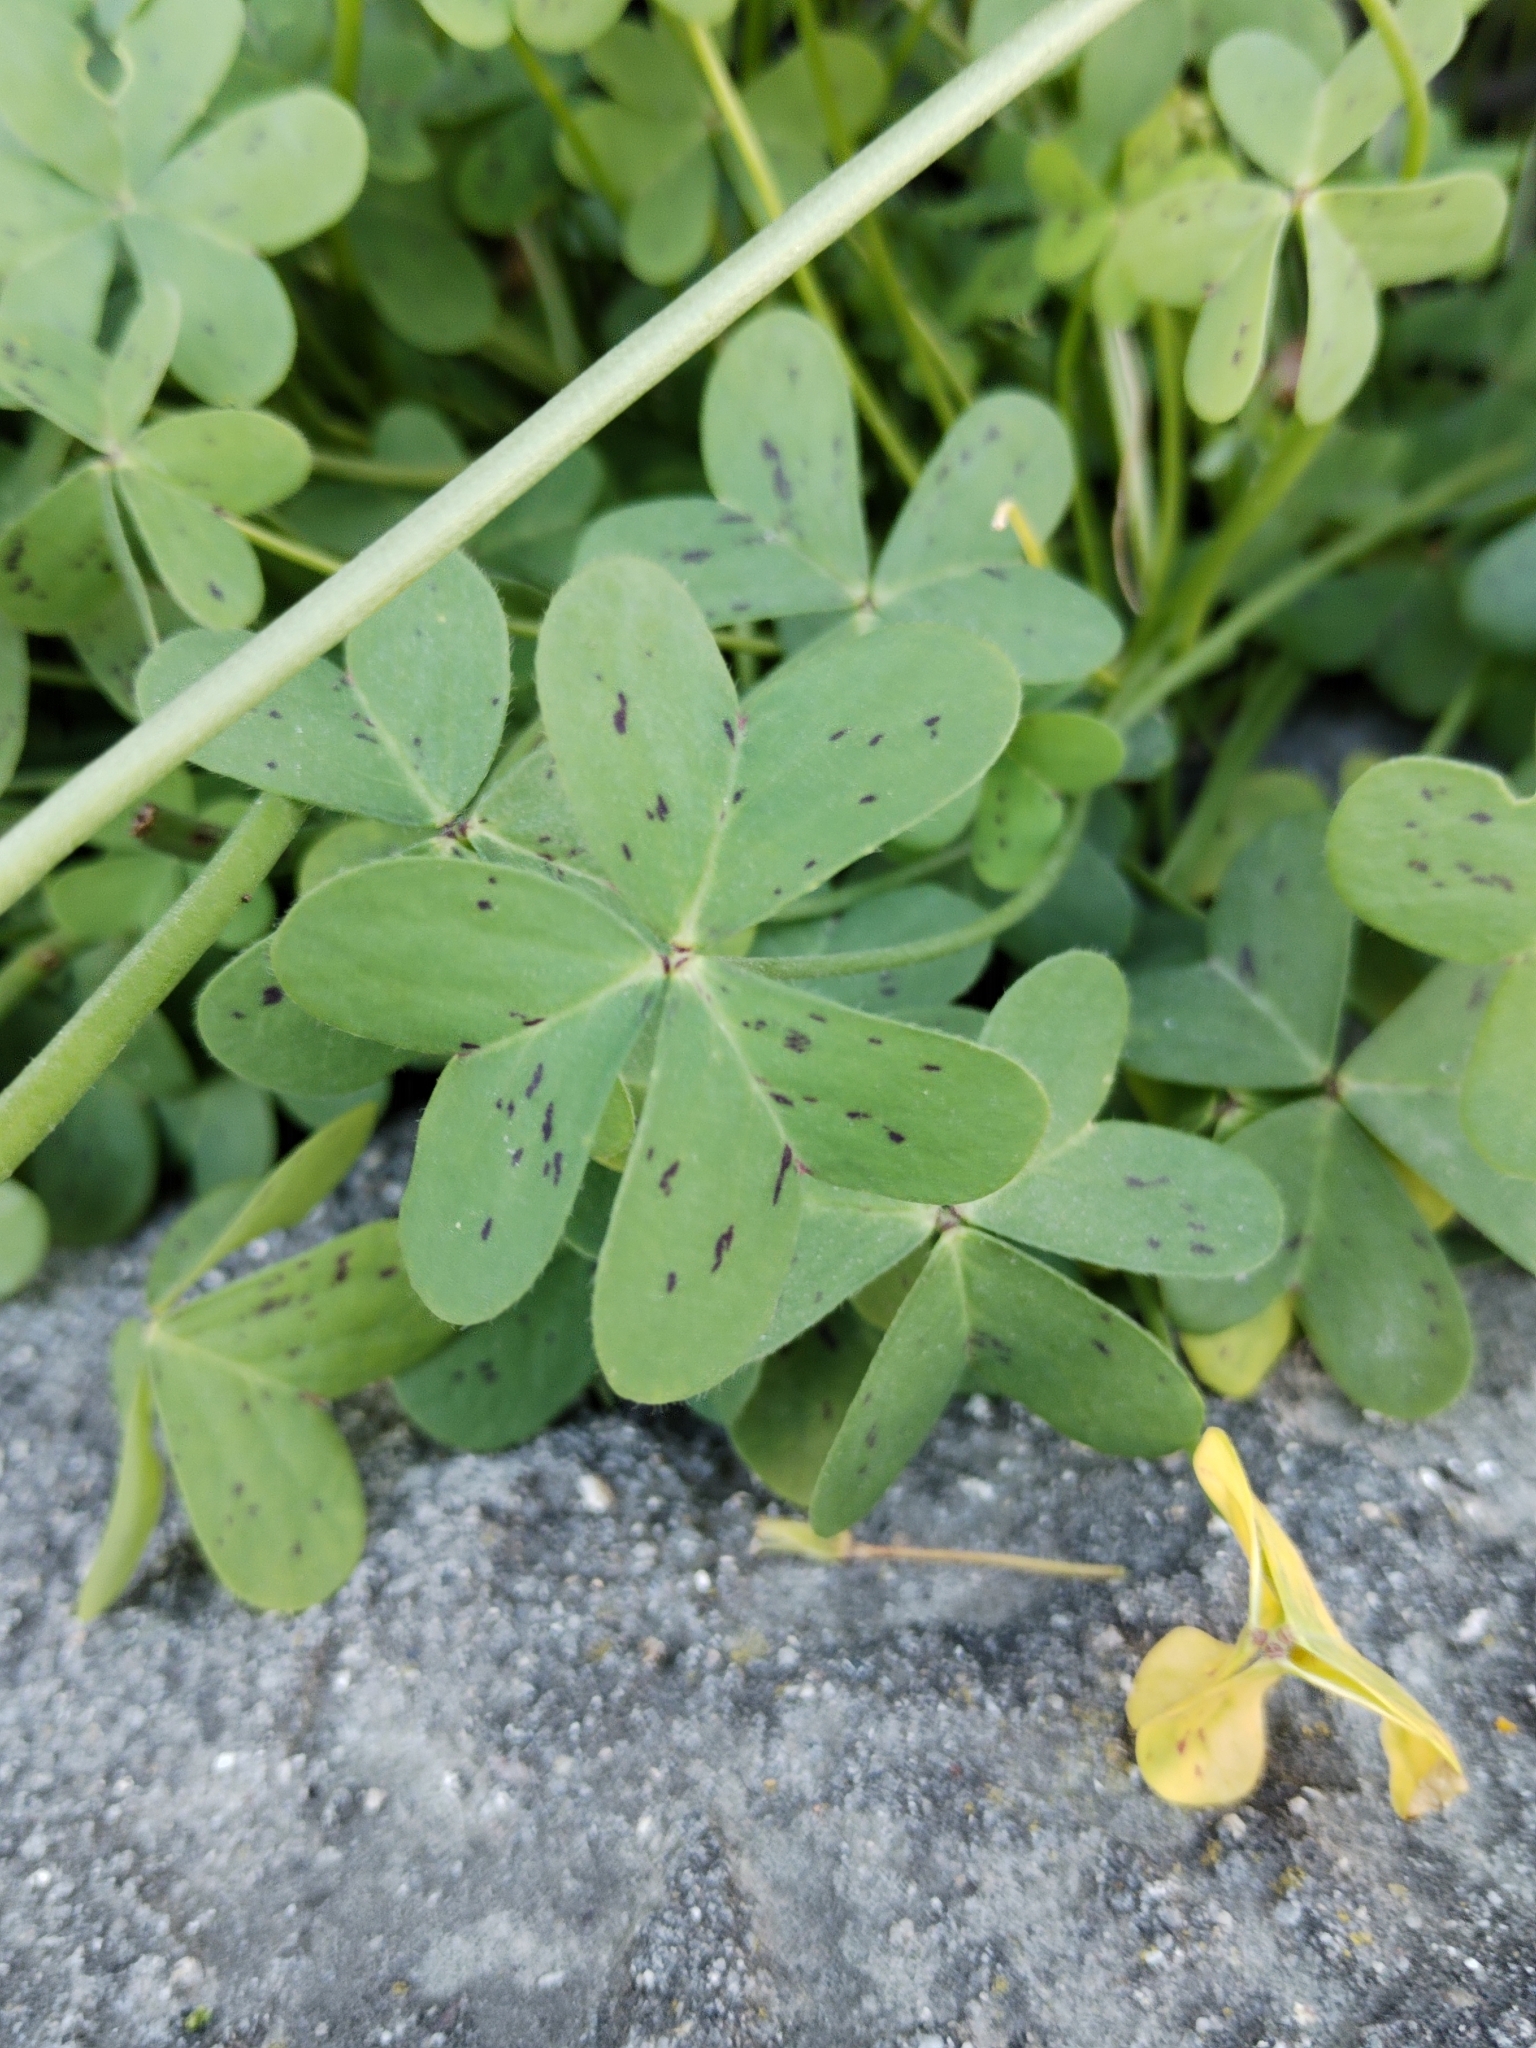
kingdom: Plantae
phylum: Tracheophyta
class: Magnoliopsida
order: Oxalidales
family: Oxalidaceae
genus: Oxalis
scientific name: Oxalis pes-caprae
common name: Bermuda-buttercup
